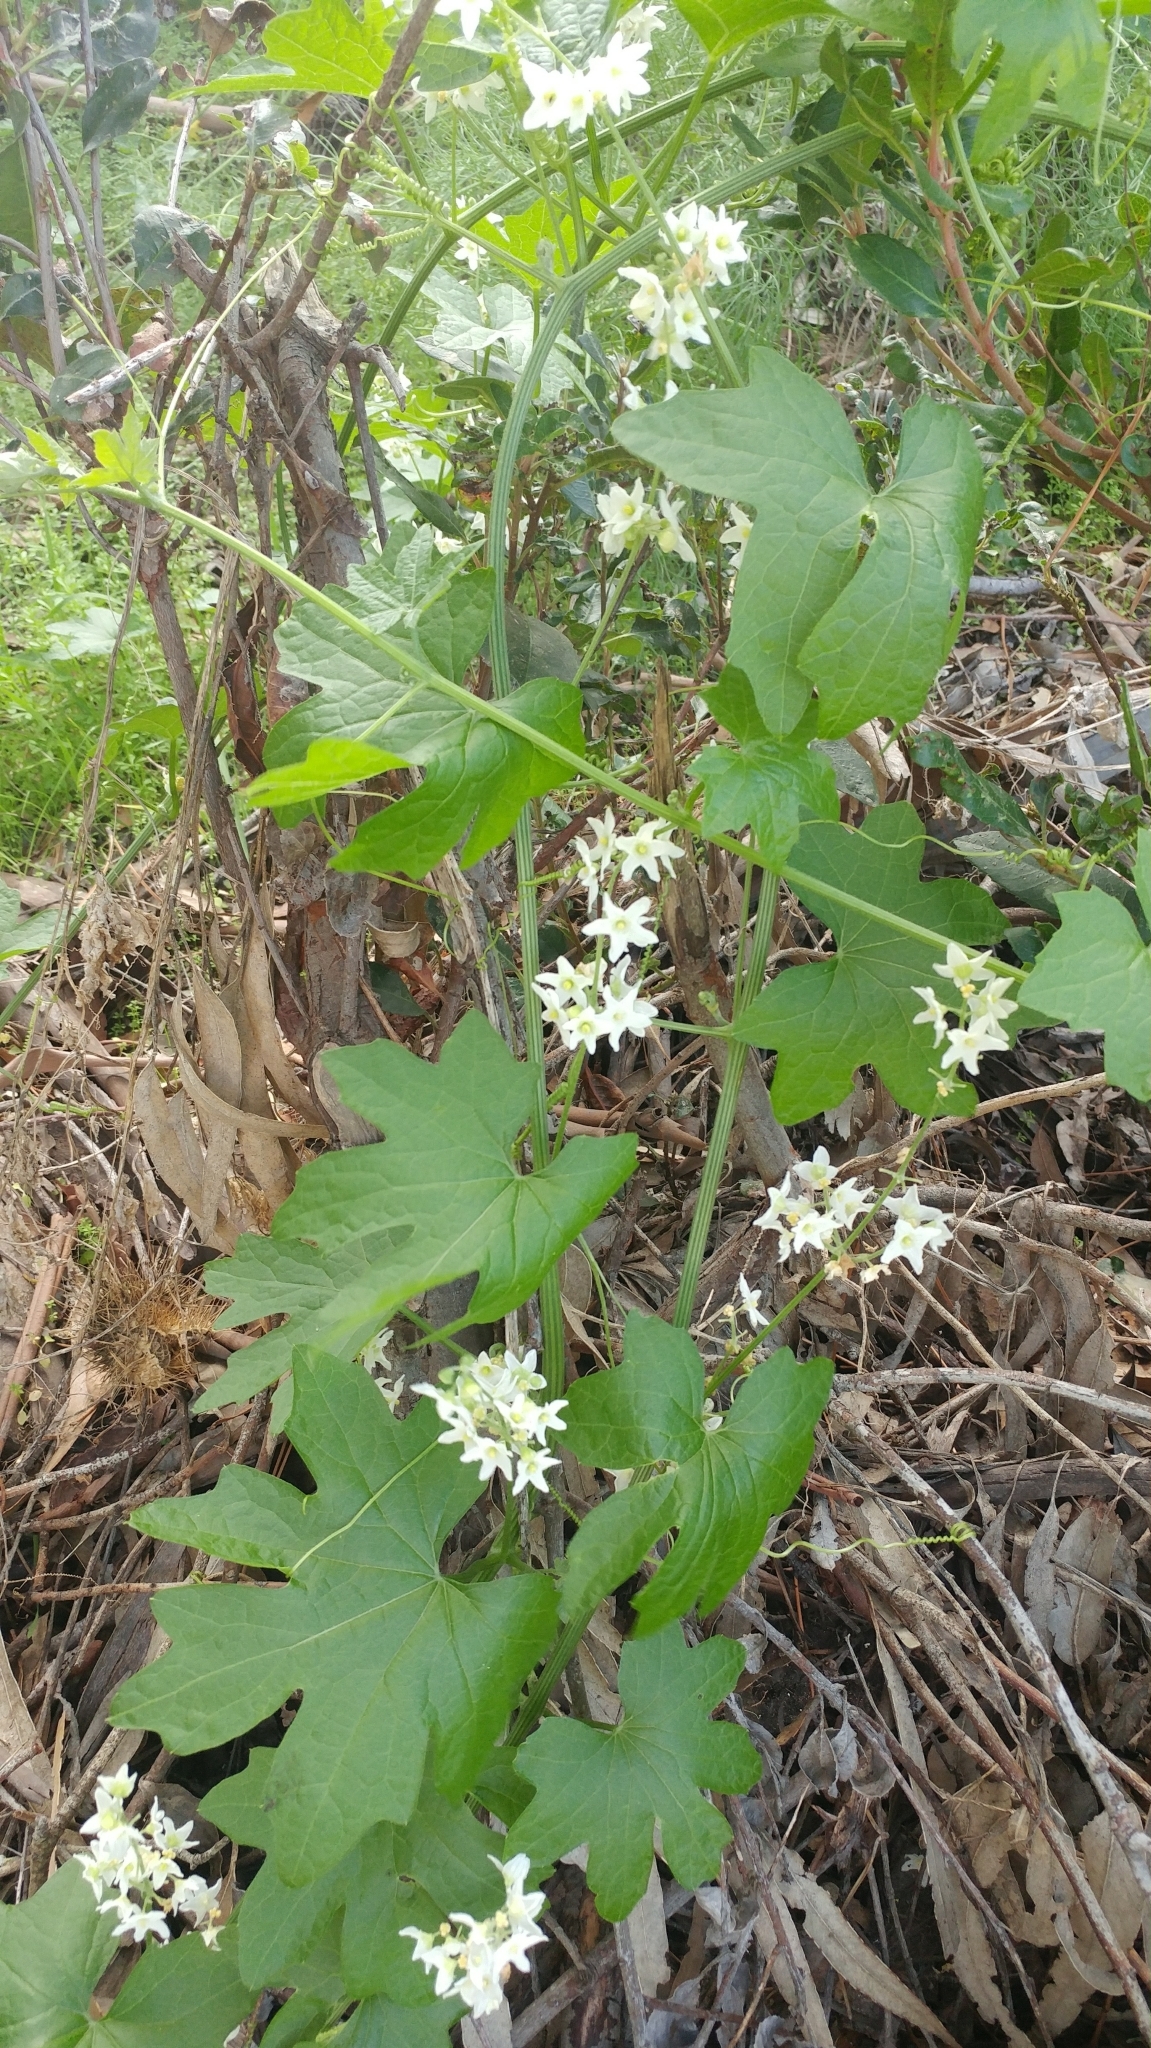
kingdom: Plantae
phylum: Tracheophyta
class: Magnoliopsida
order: Cucurbitales
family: Cucurbitaceae
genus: Marah
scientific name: Marah macrocarpa
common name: Cucamonga manroot
